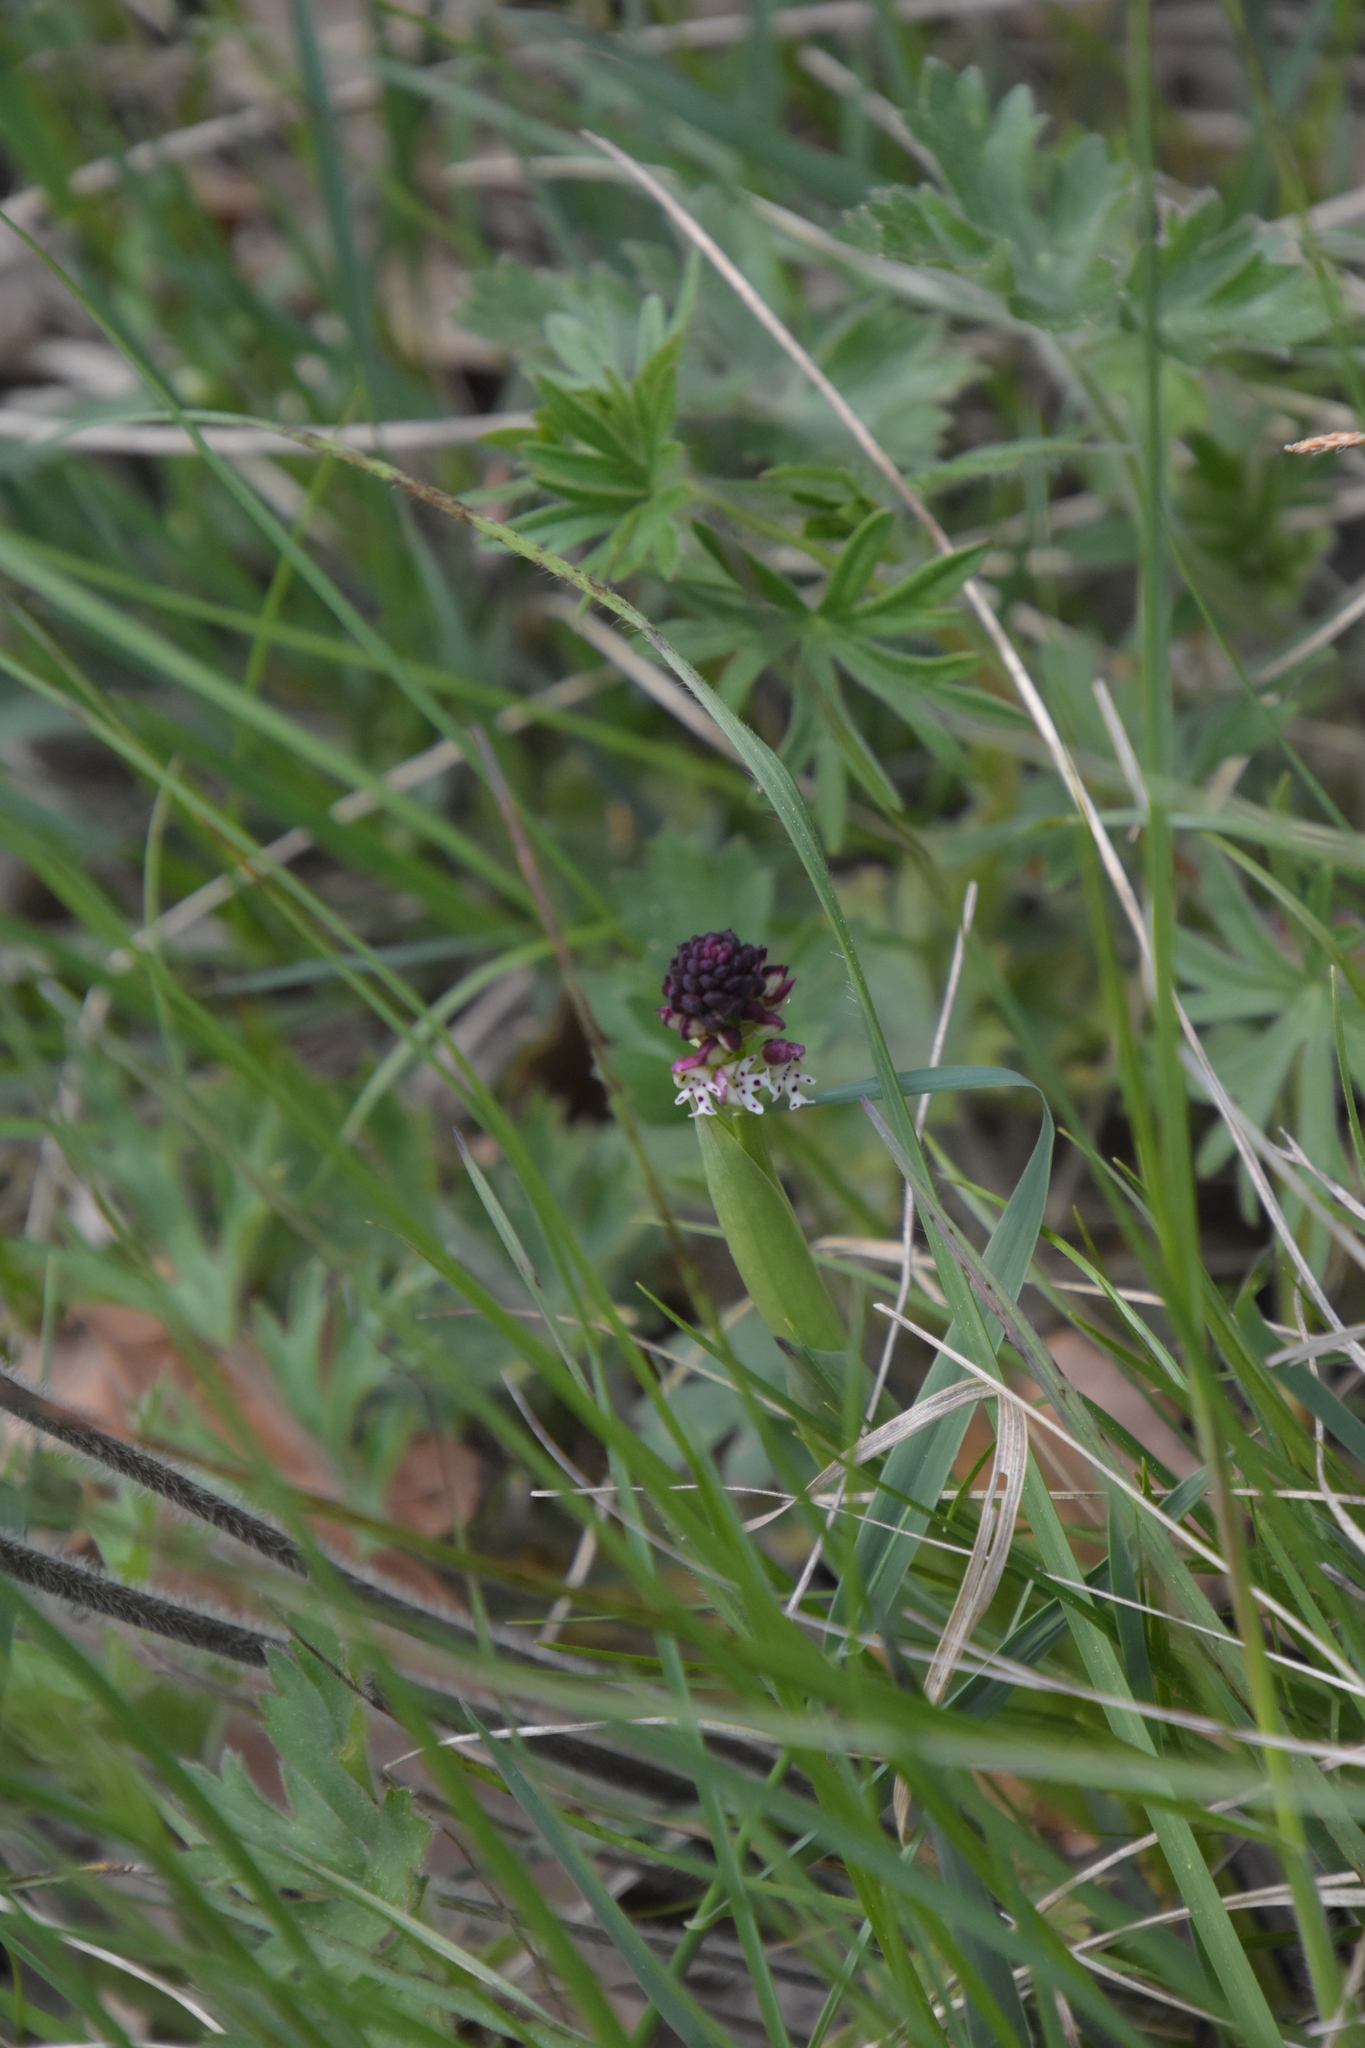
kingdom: Plantae
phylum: Tracheophyta
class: Liliopsida
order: Asparagales
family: Orchidaceae
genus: Neotinea
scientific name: Neotinea ustulata
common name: Burnt orchid
